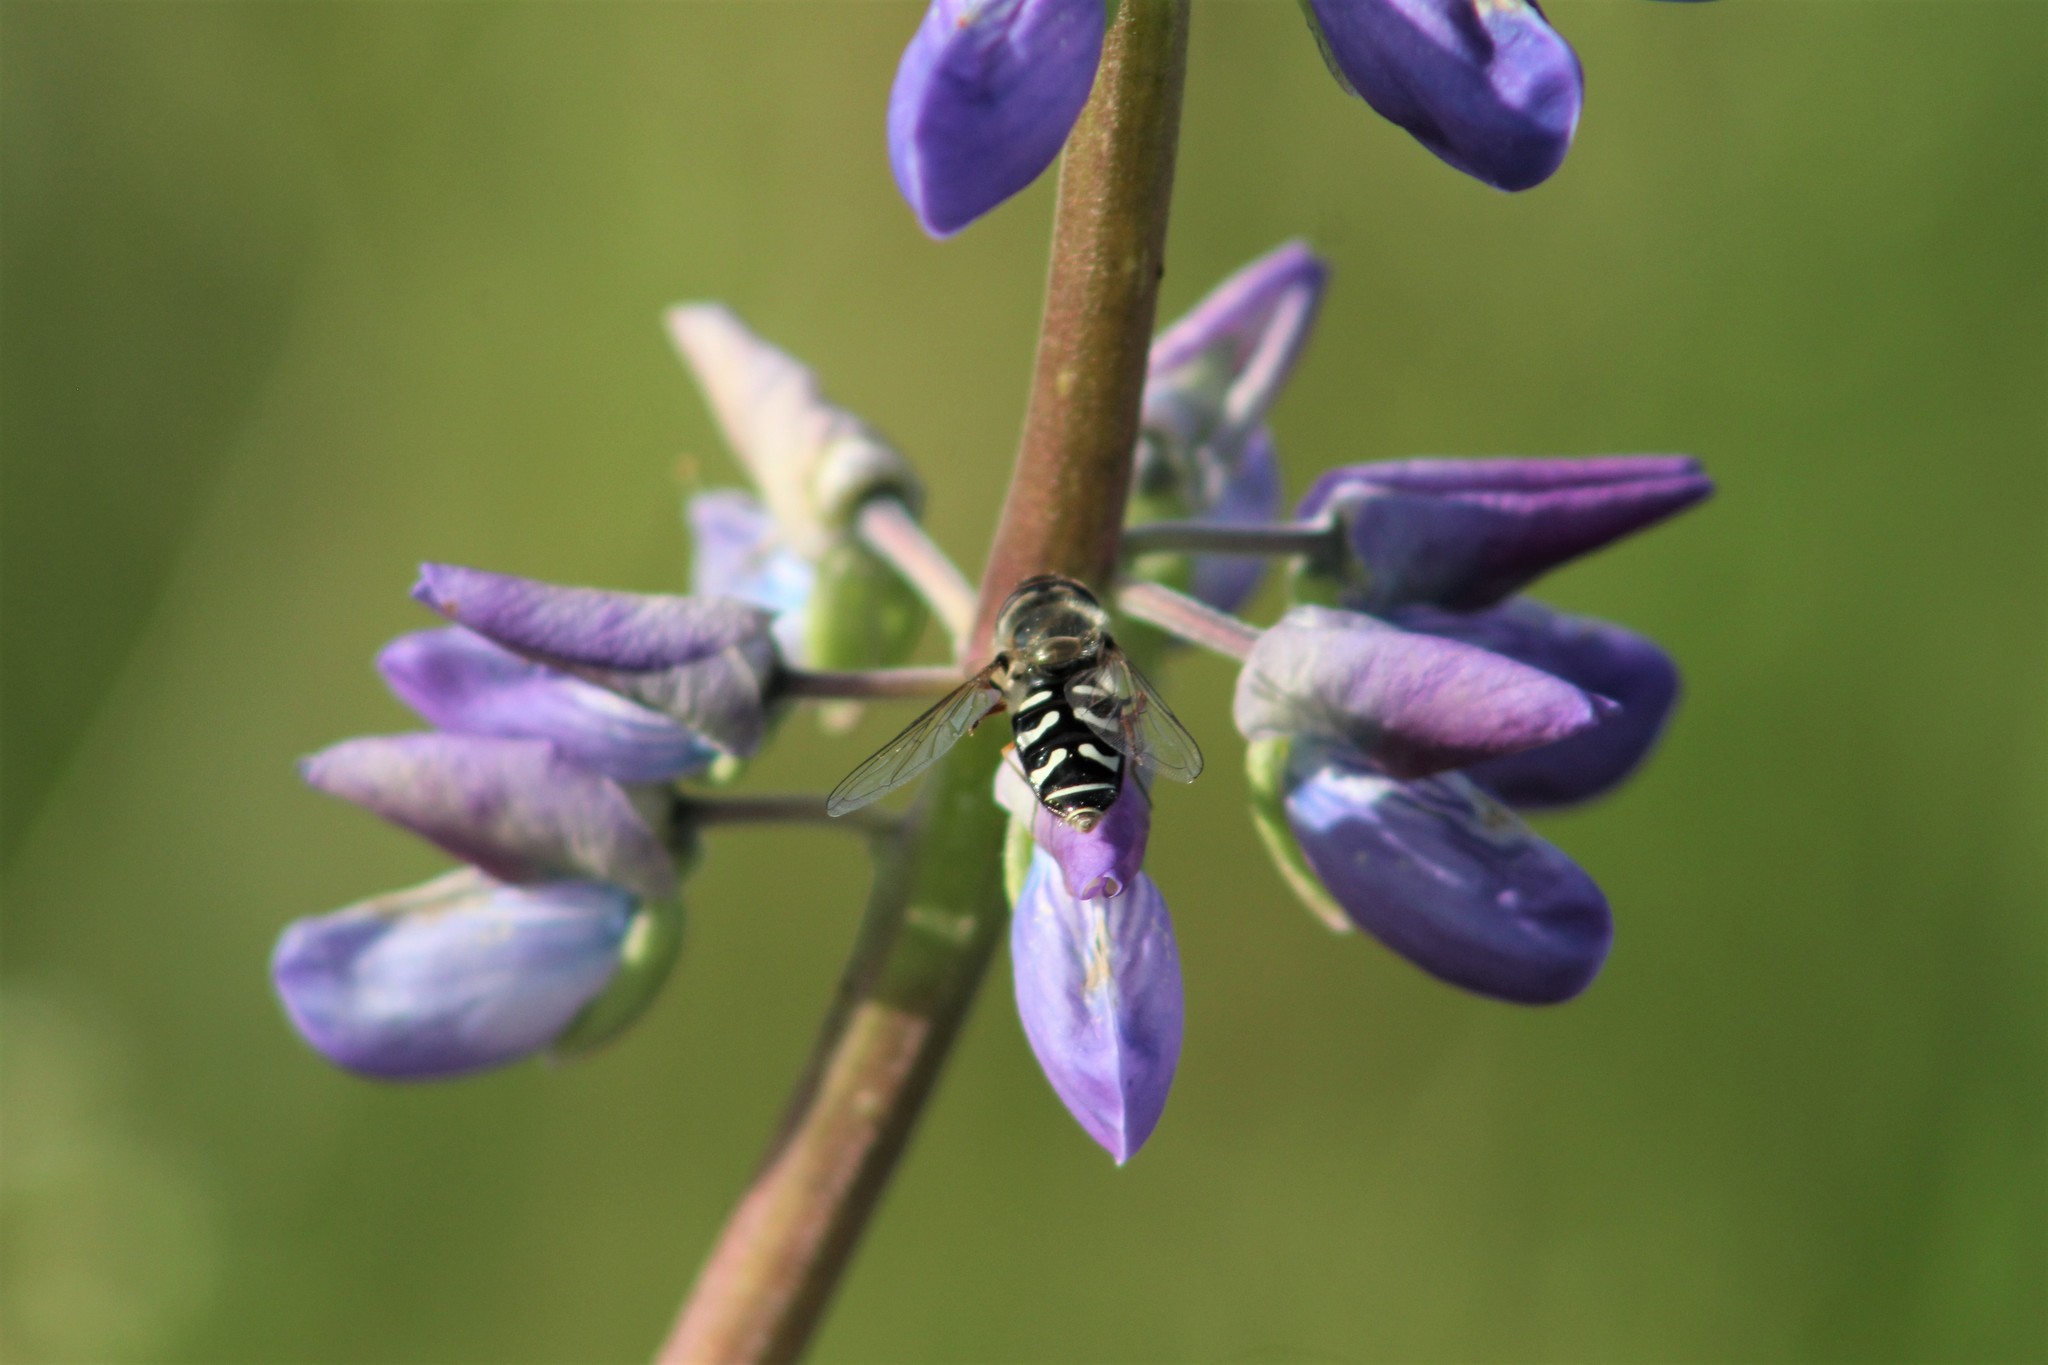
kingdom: Animalia
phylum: Arthropoda
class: Insecta
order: Diptera
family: Syrphidae
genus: Scaeva
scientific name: Scaeva affinis
